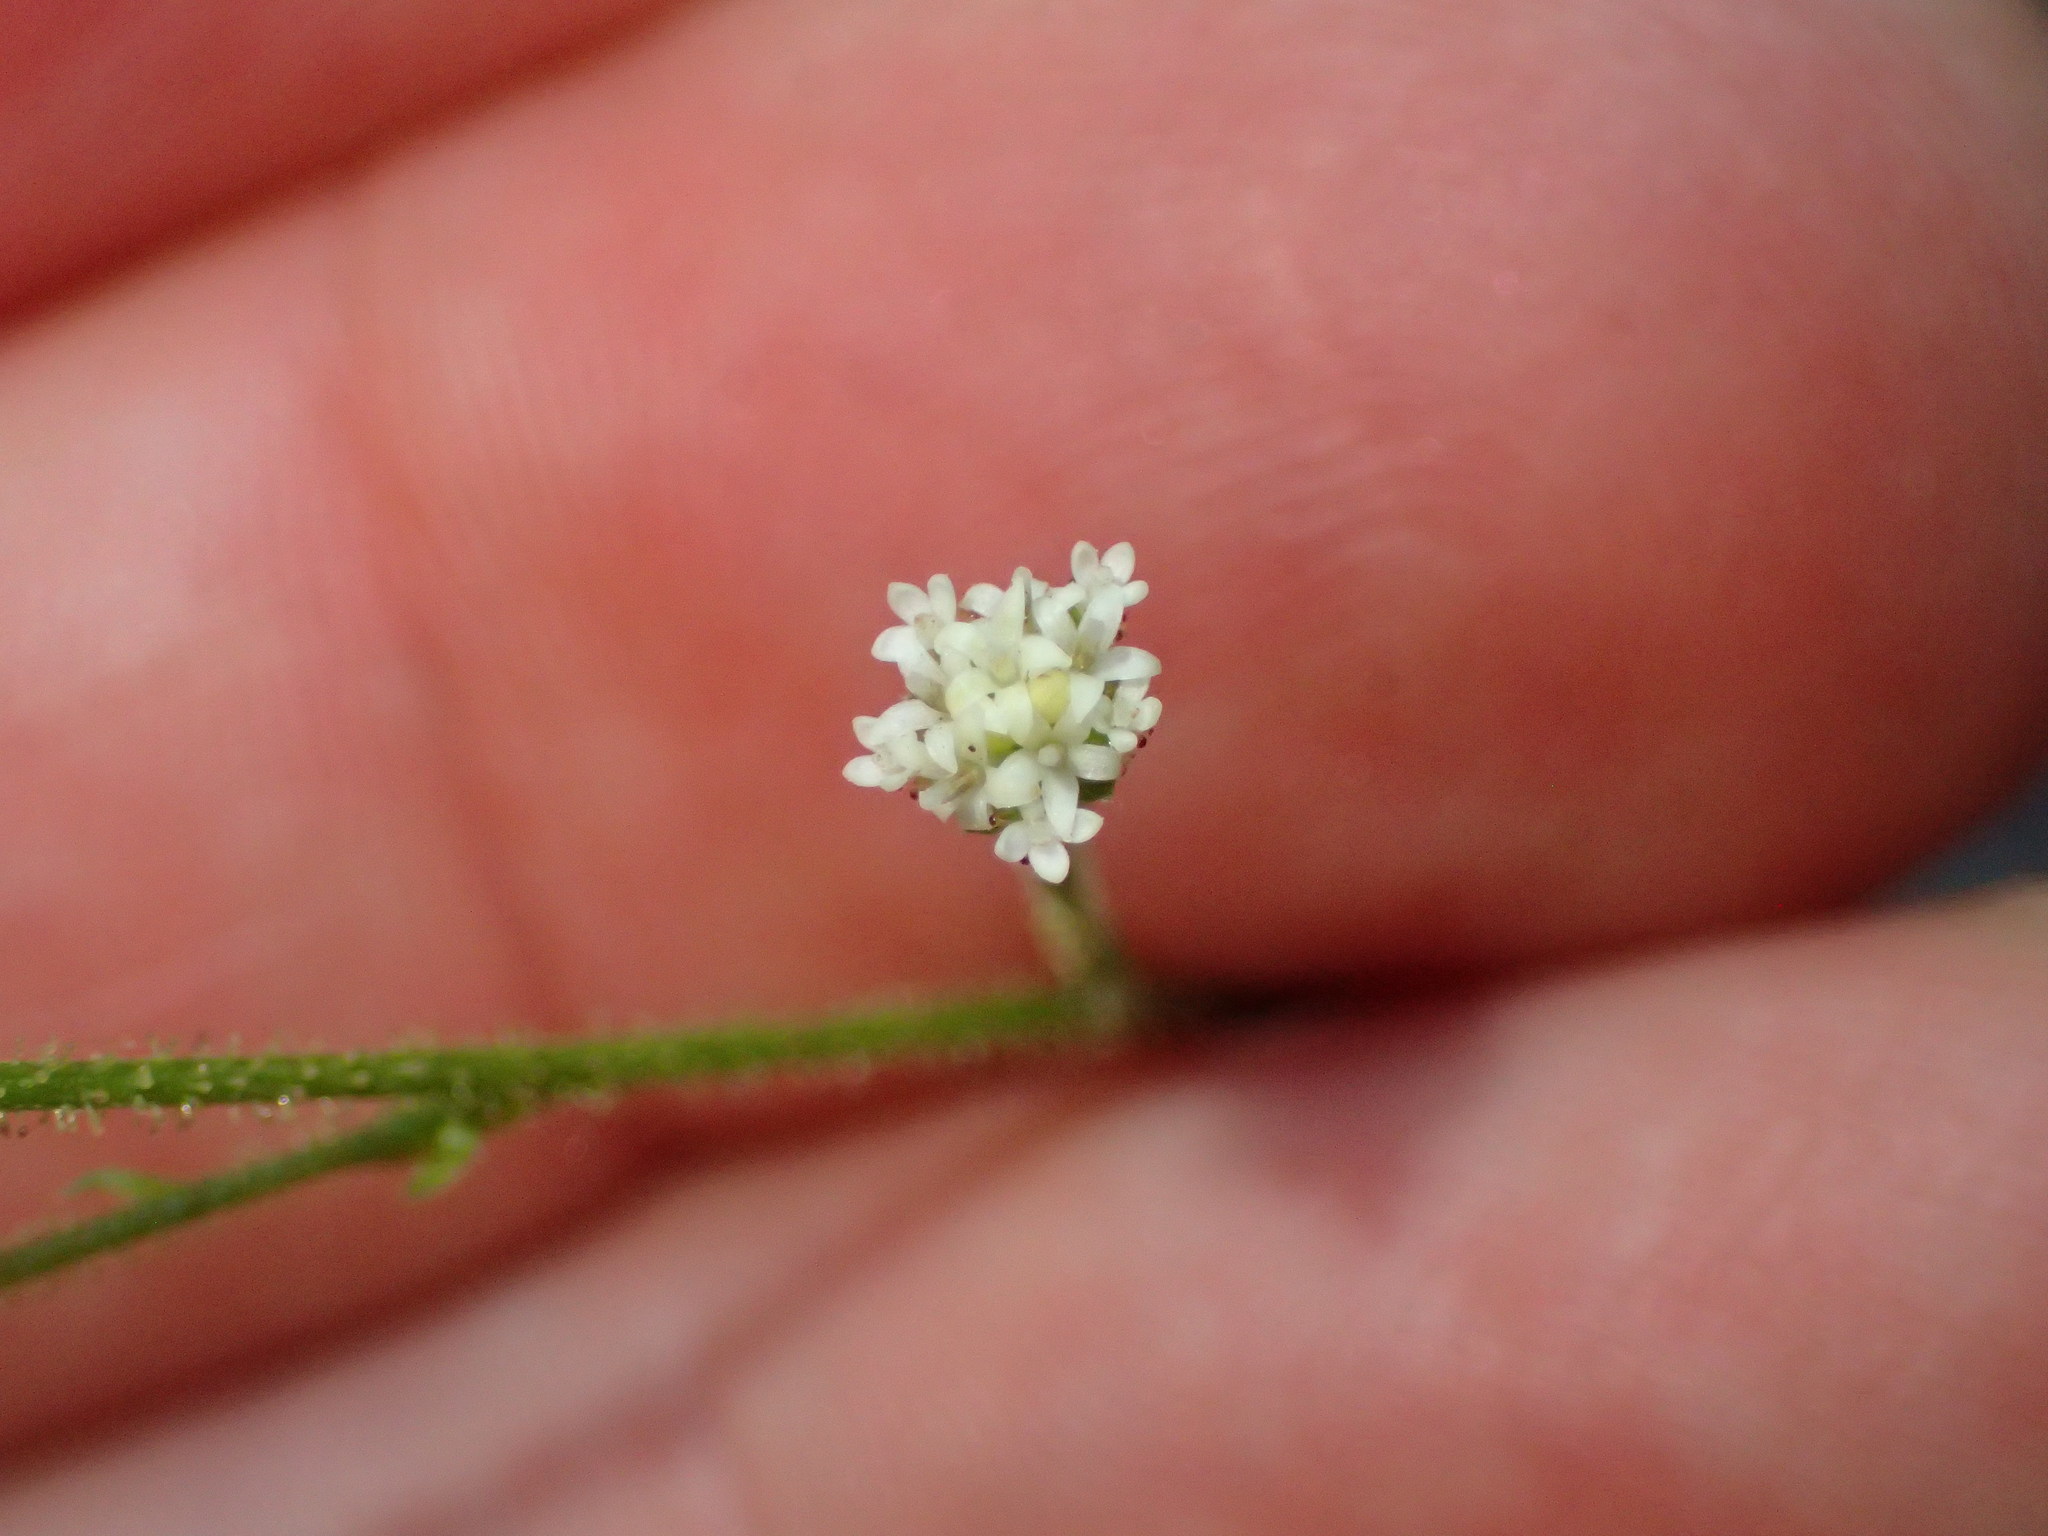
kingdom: Plantae
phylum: Tracheophyta
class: Magnoliopsida
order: Asterales
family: Asteraceae
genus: Adenocaulon
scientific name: Adenocaulon bicolor
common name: Trailplant
